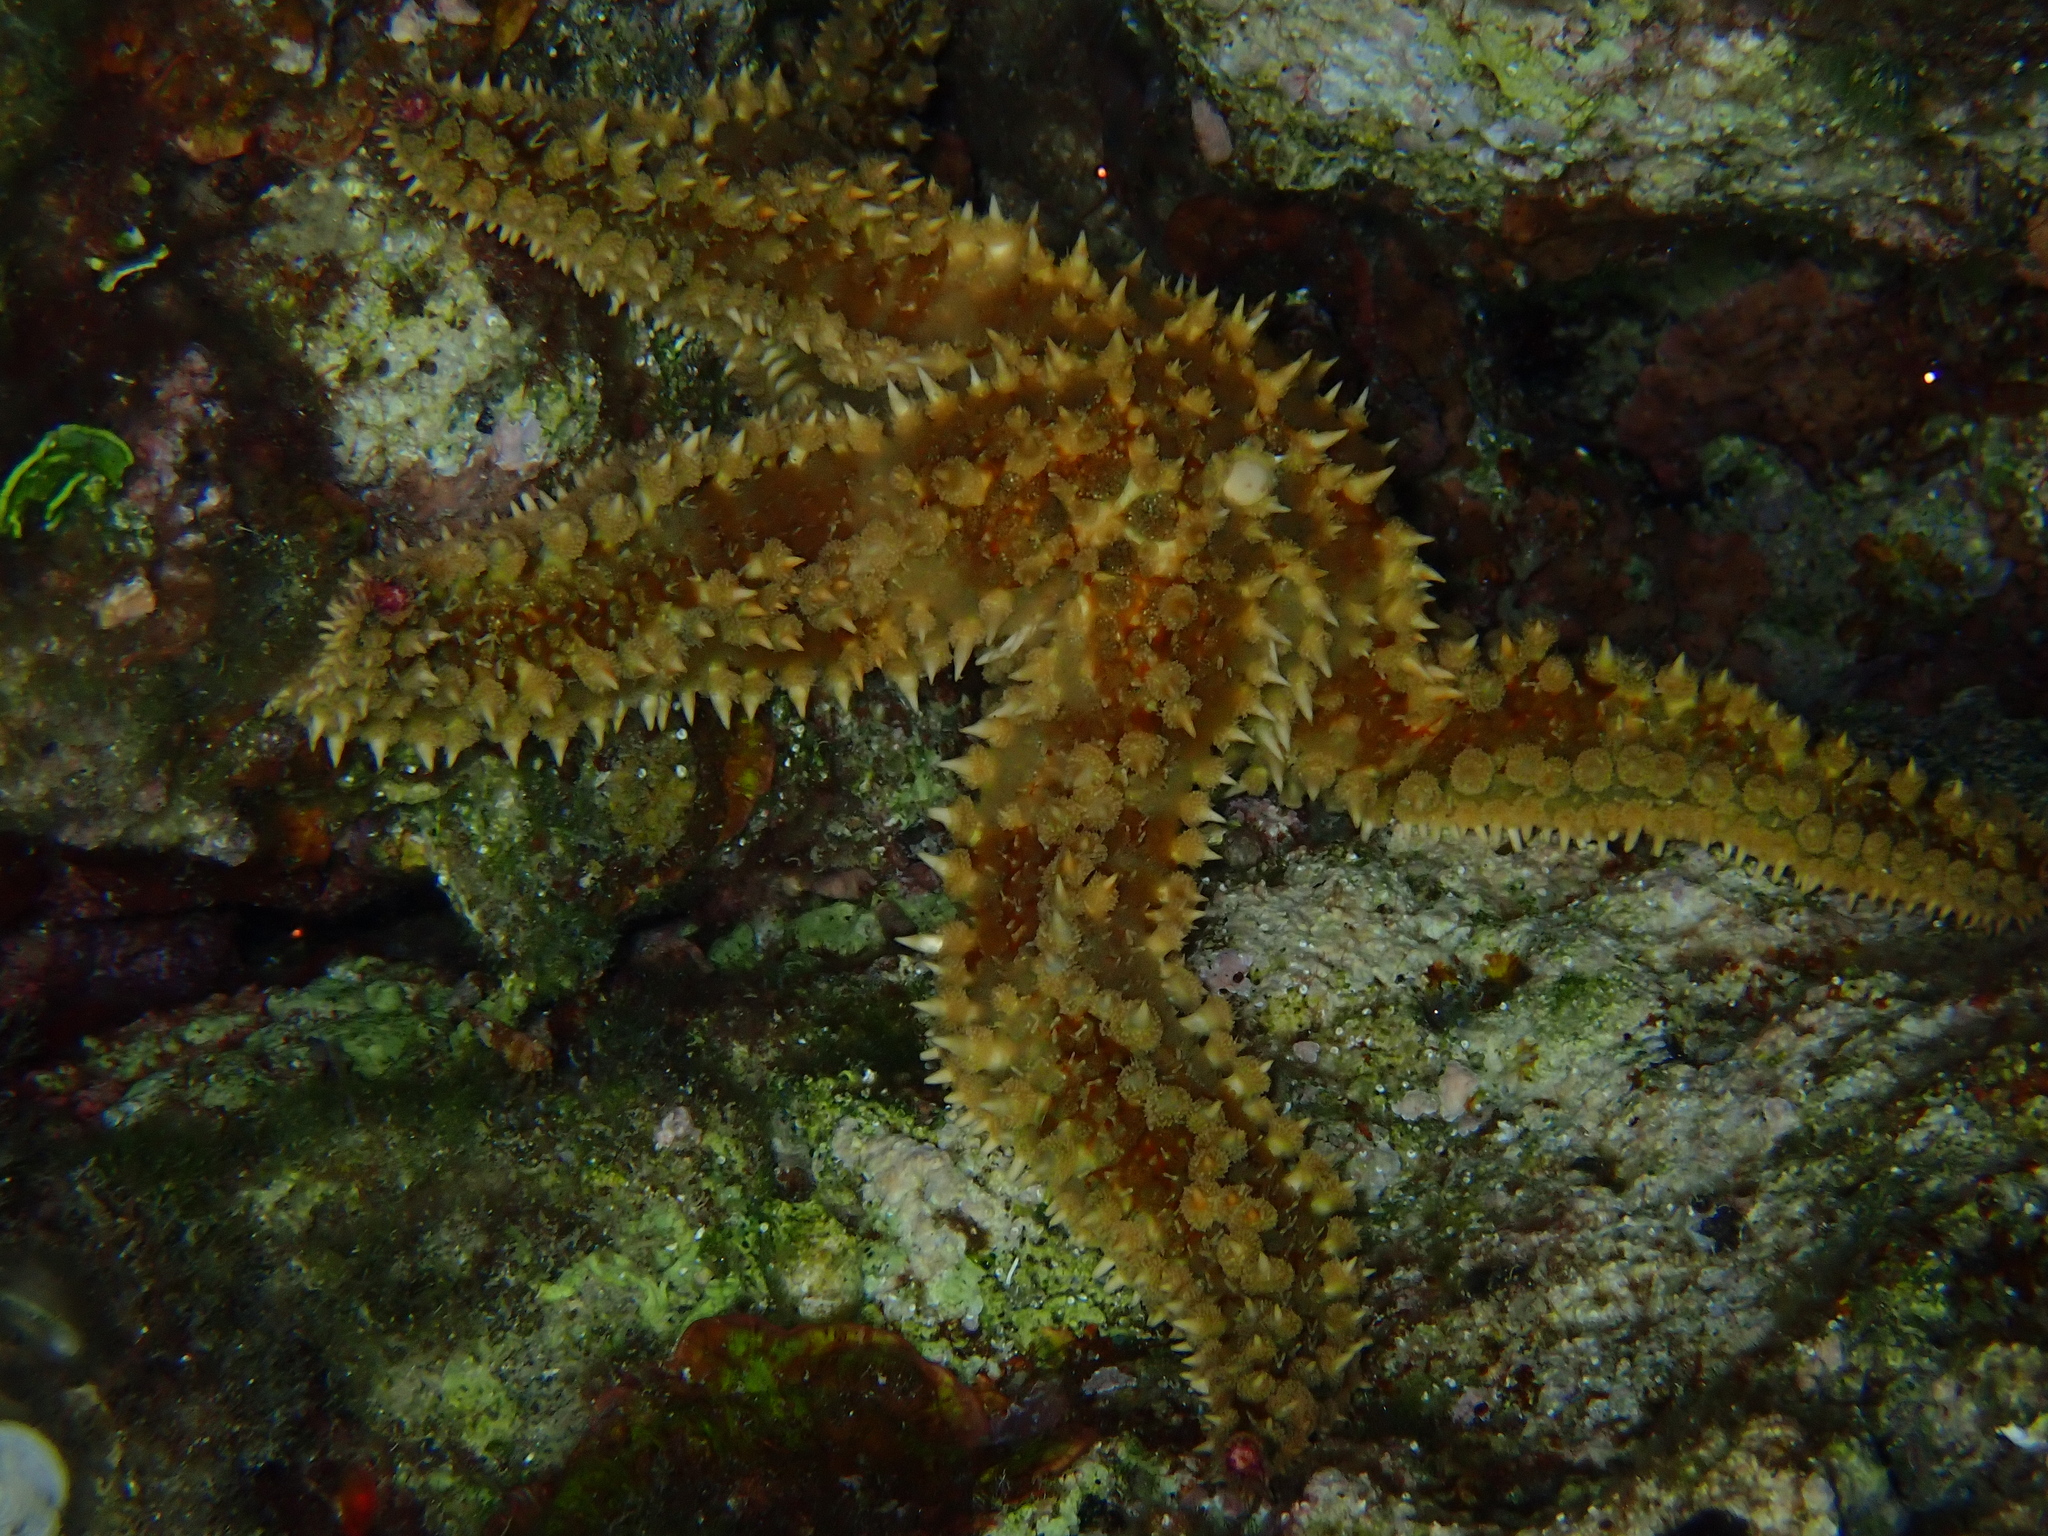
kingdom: Animalia
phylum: Echinodermata
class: Asteroidea
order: Forcipulatida
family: Asteriidae
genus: Marthasterias
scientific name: Marthasterias glacialis
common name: Spiny starfish
